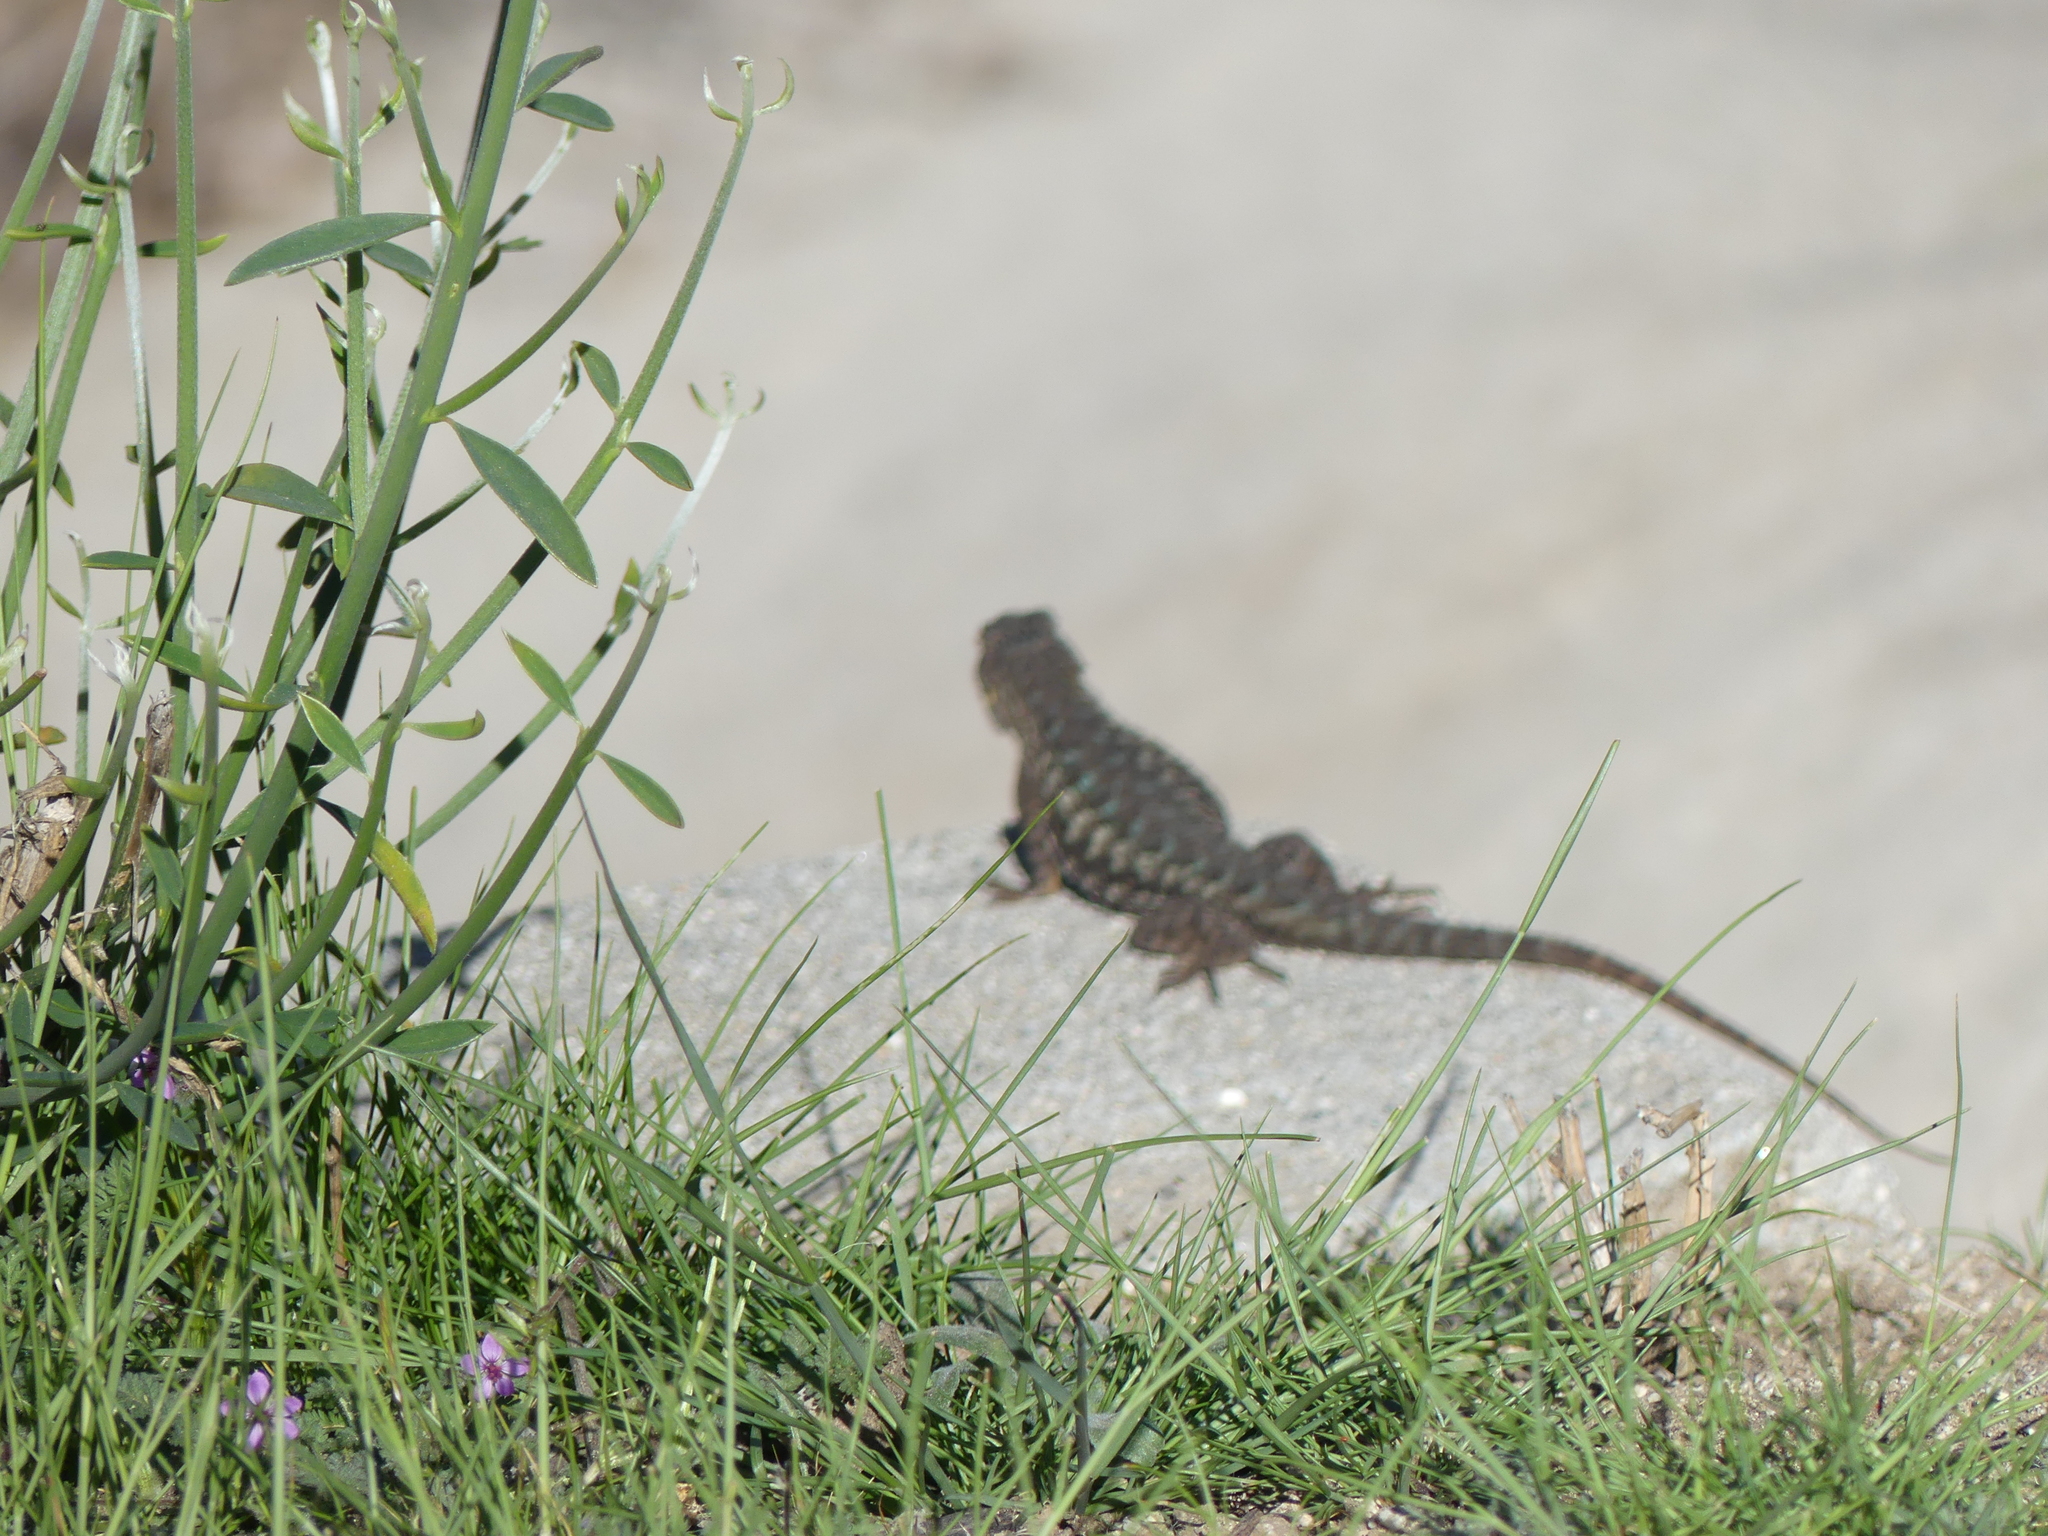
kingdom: Animalia
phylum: Chordata
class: Squamata
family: Phrynosomatidae
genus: Sceloporus
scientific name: Sceloporus occidentalis
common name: Western fence lizard
